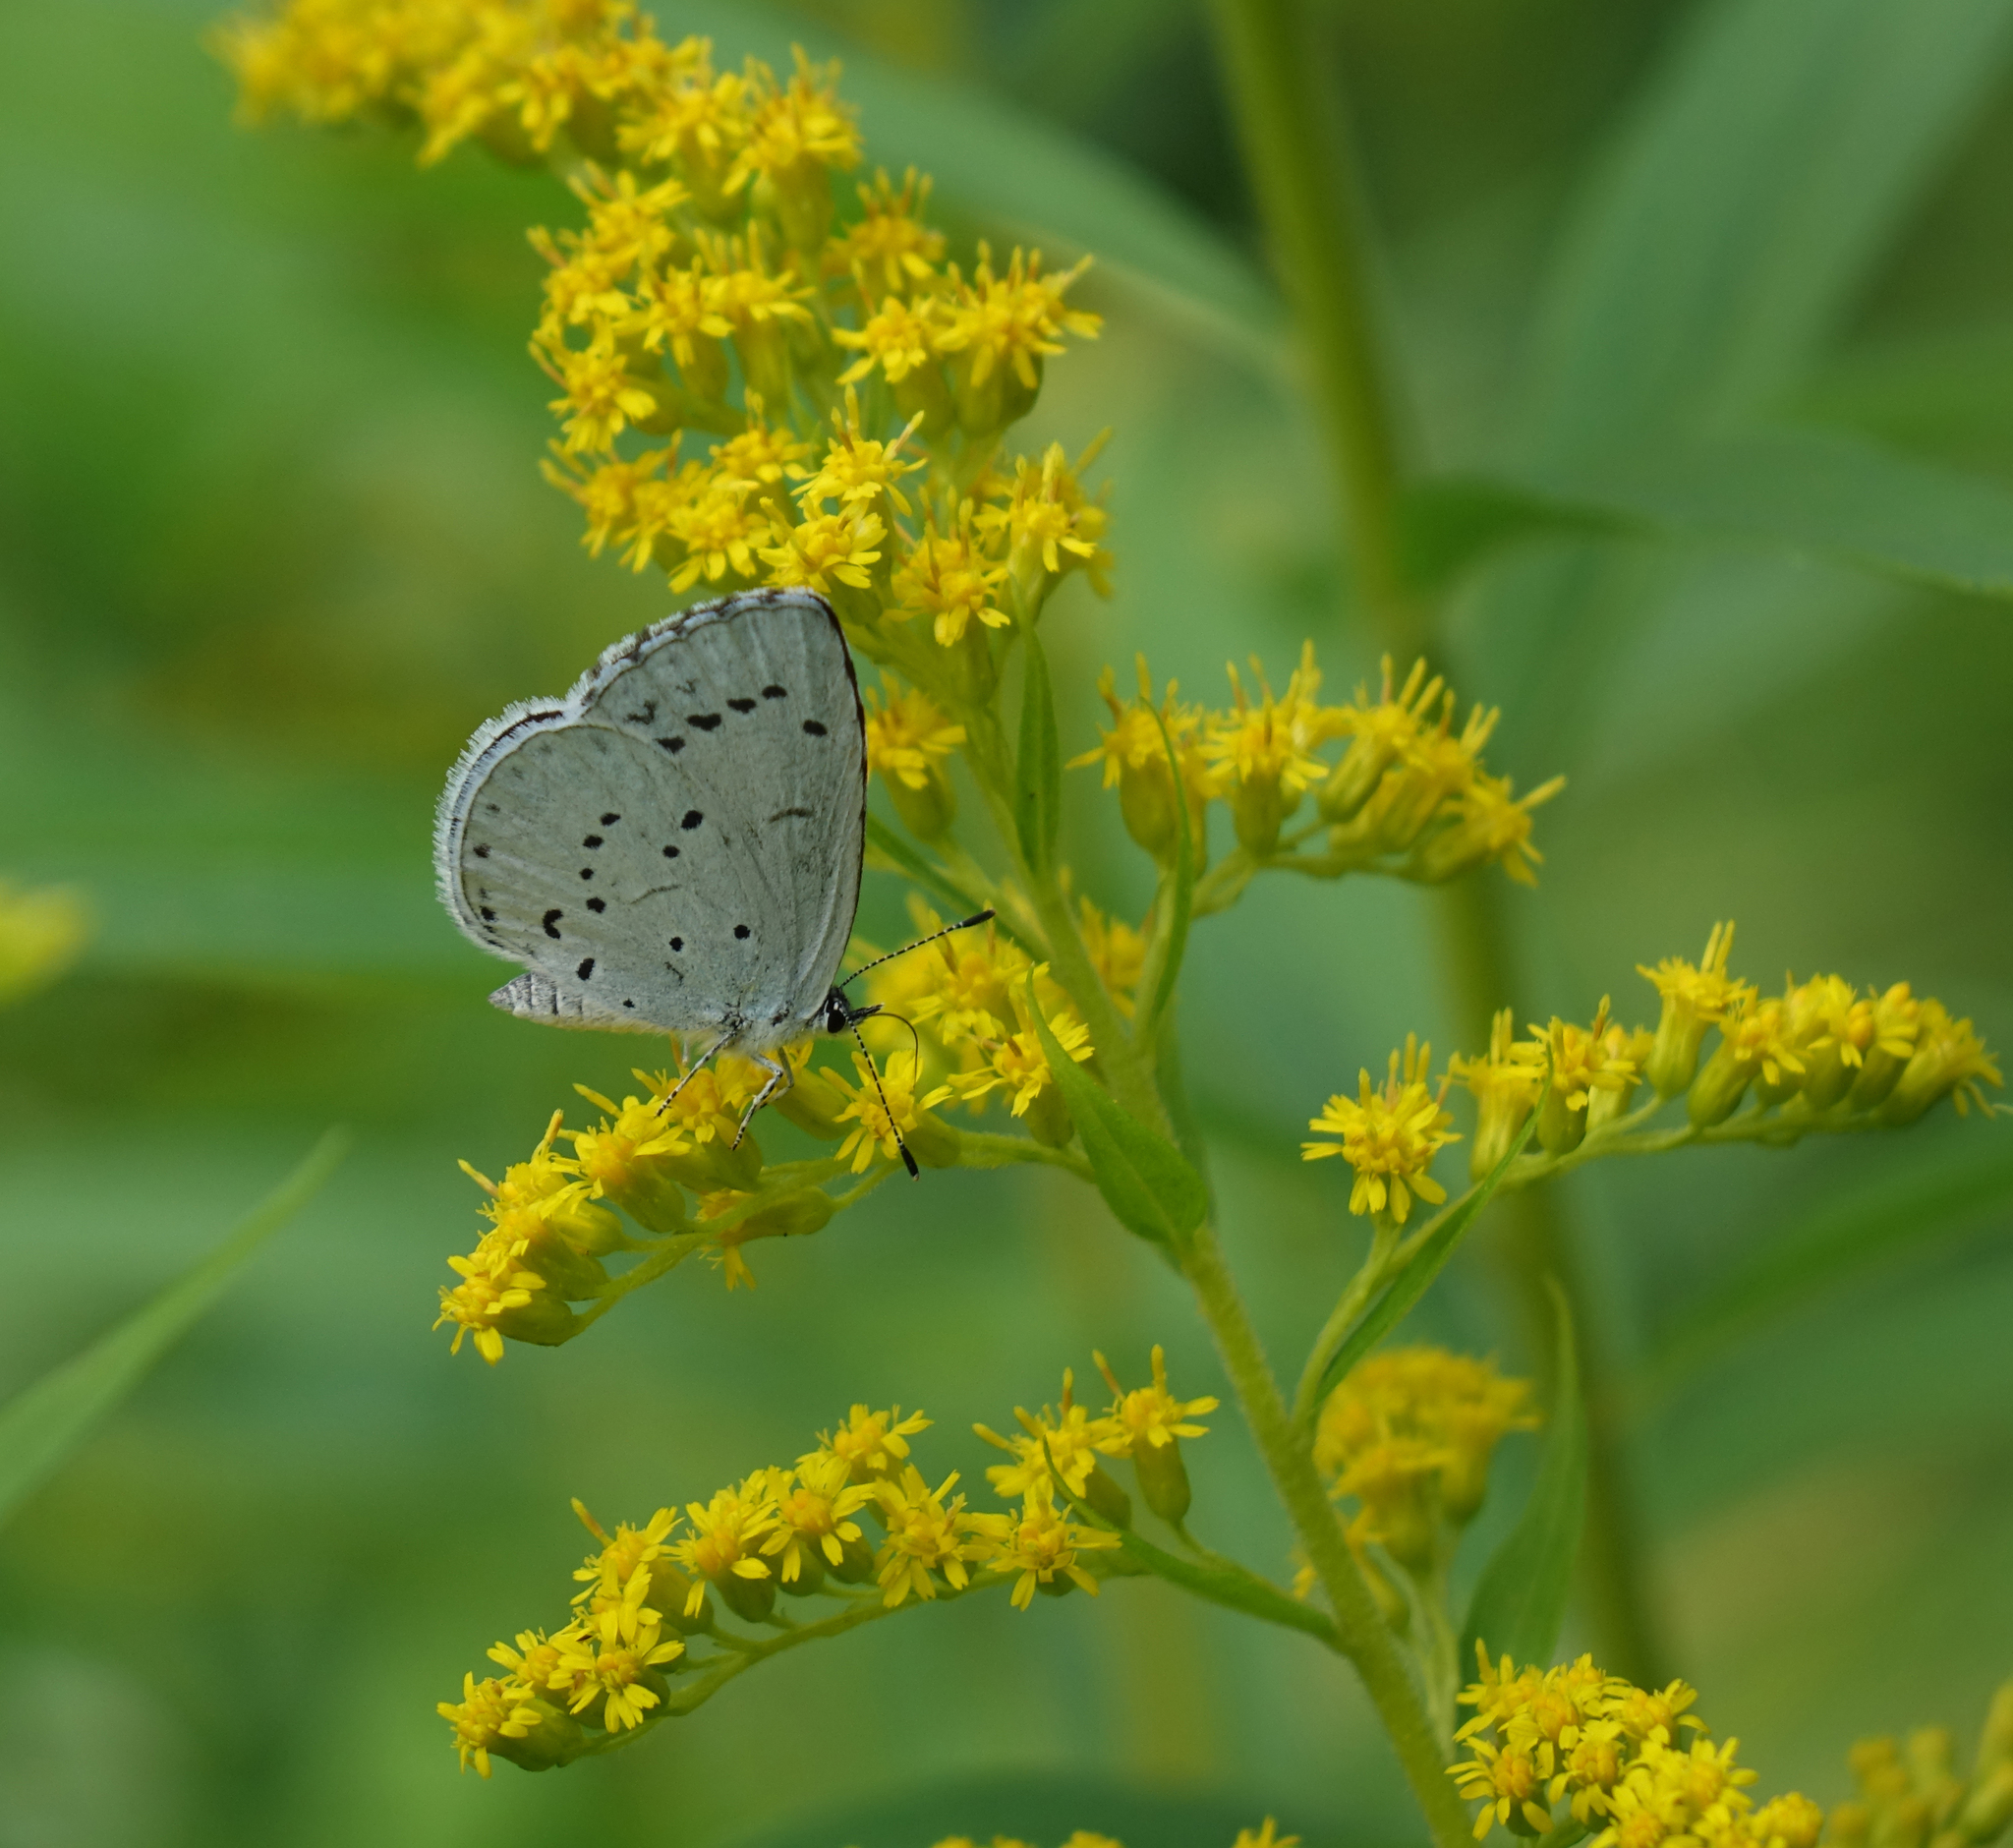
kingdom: Plantae
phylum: Tracheophyta
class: Magnoliopsida
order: Asterales
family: Asteraceae
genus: Solidago
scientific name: Solidago canadensis
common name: Canada goldenrod
